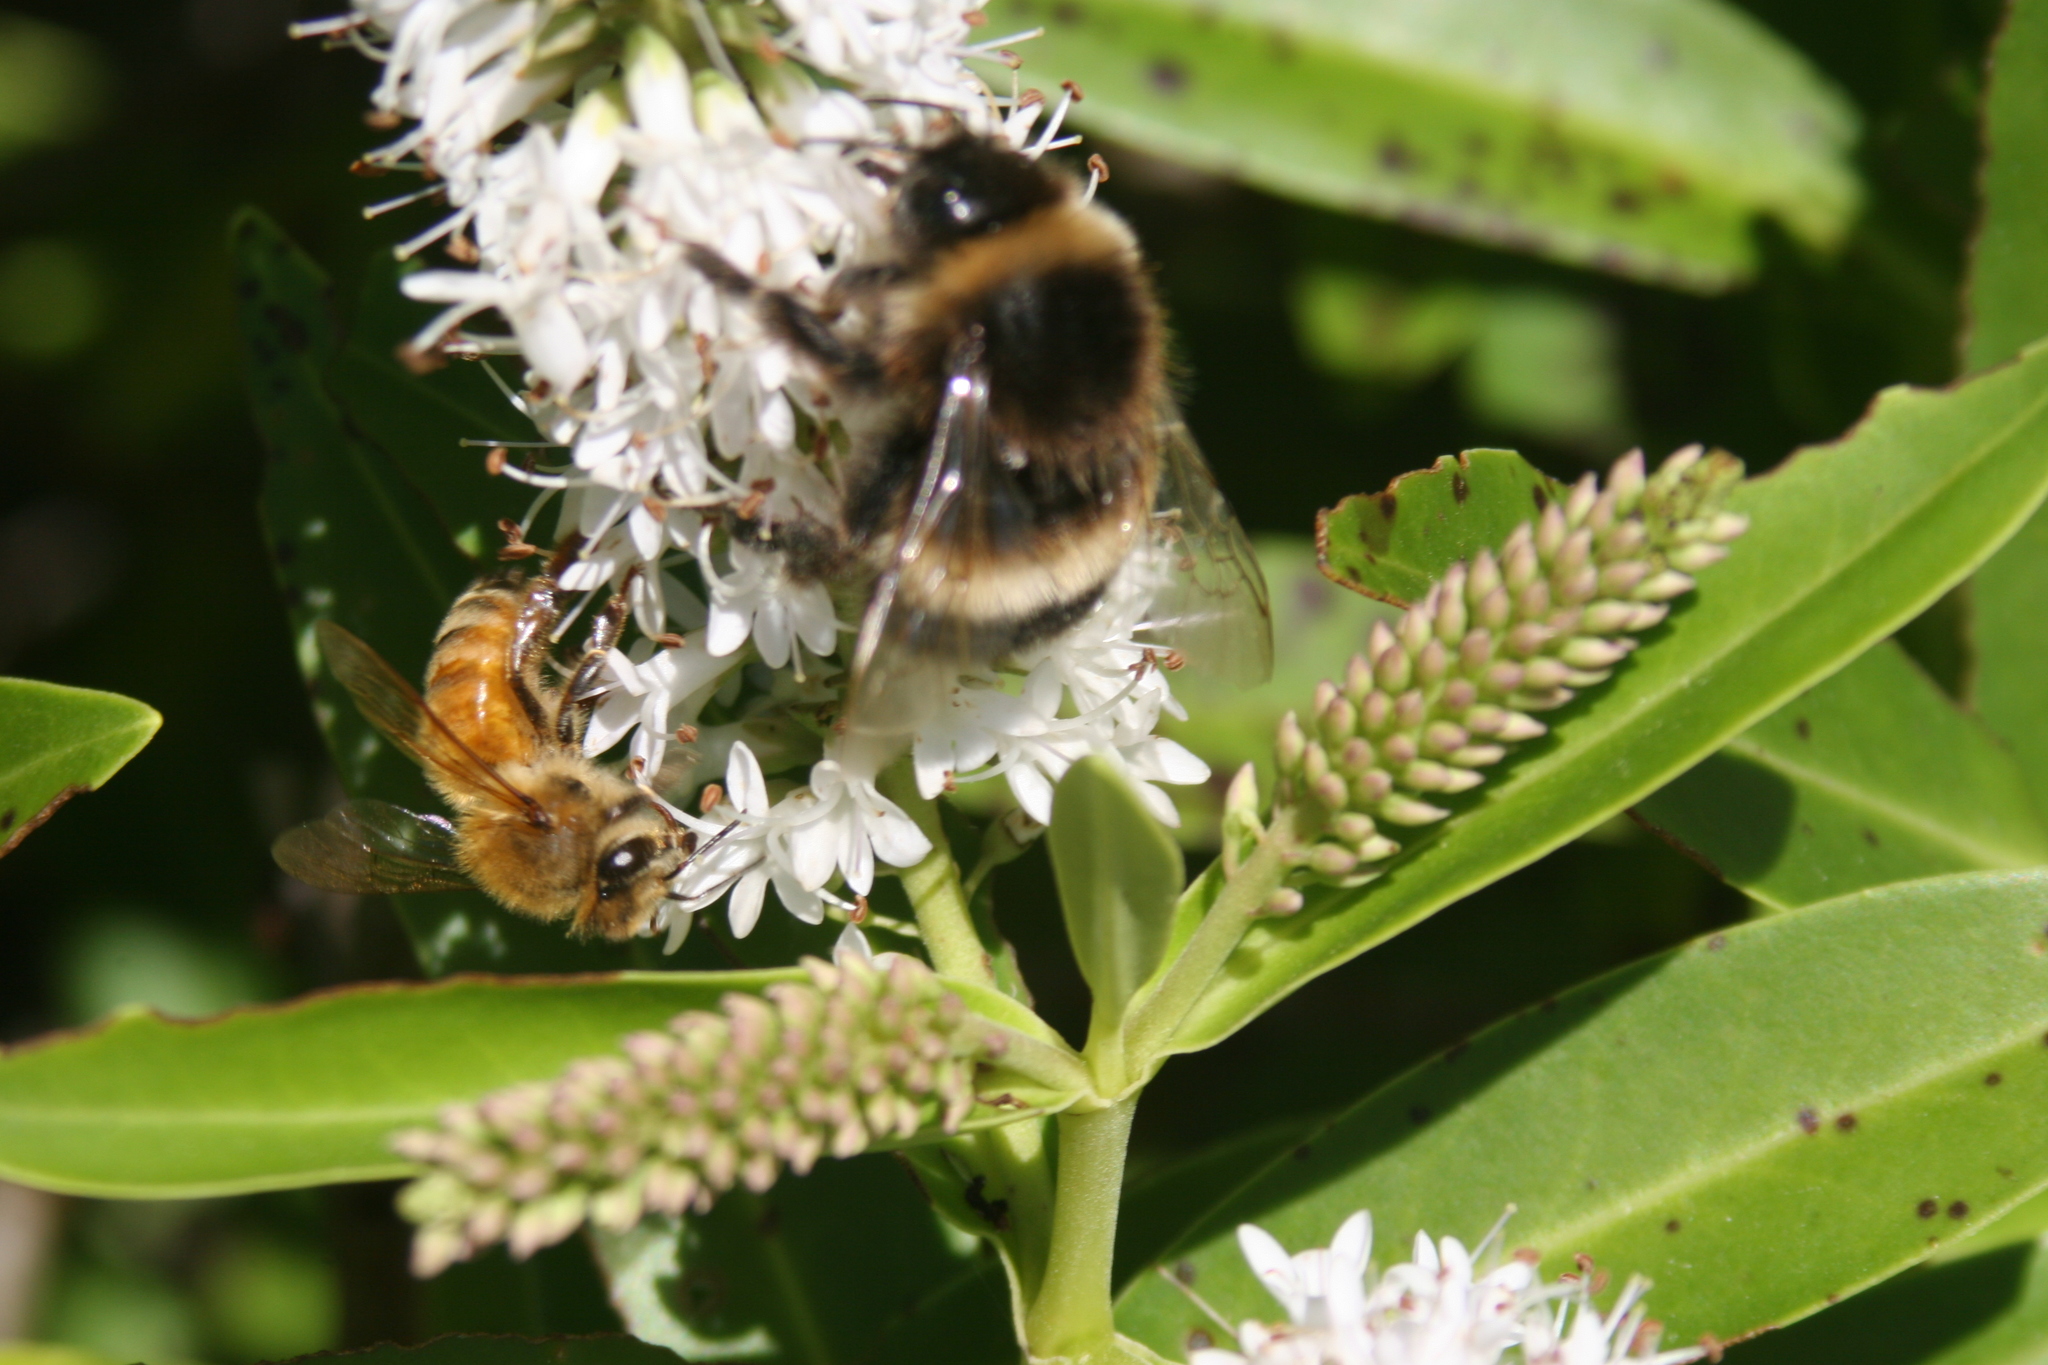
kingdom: Animalia
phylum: Arthropoda
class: Insecta
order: Hymenoptera
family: Apidae
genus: Bombus
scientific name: Bombus terrestris
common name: Buff-tailed bumblebee
